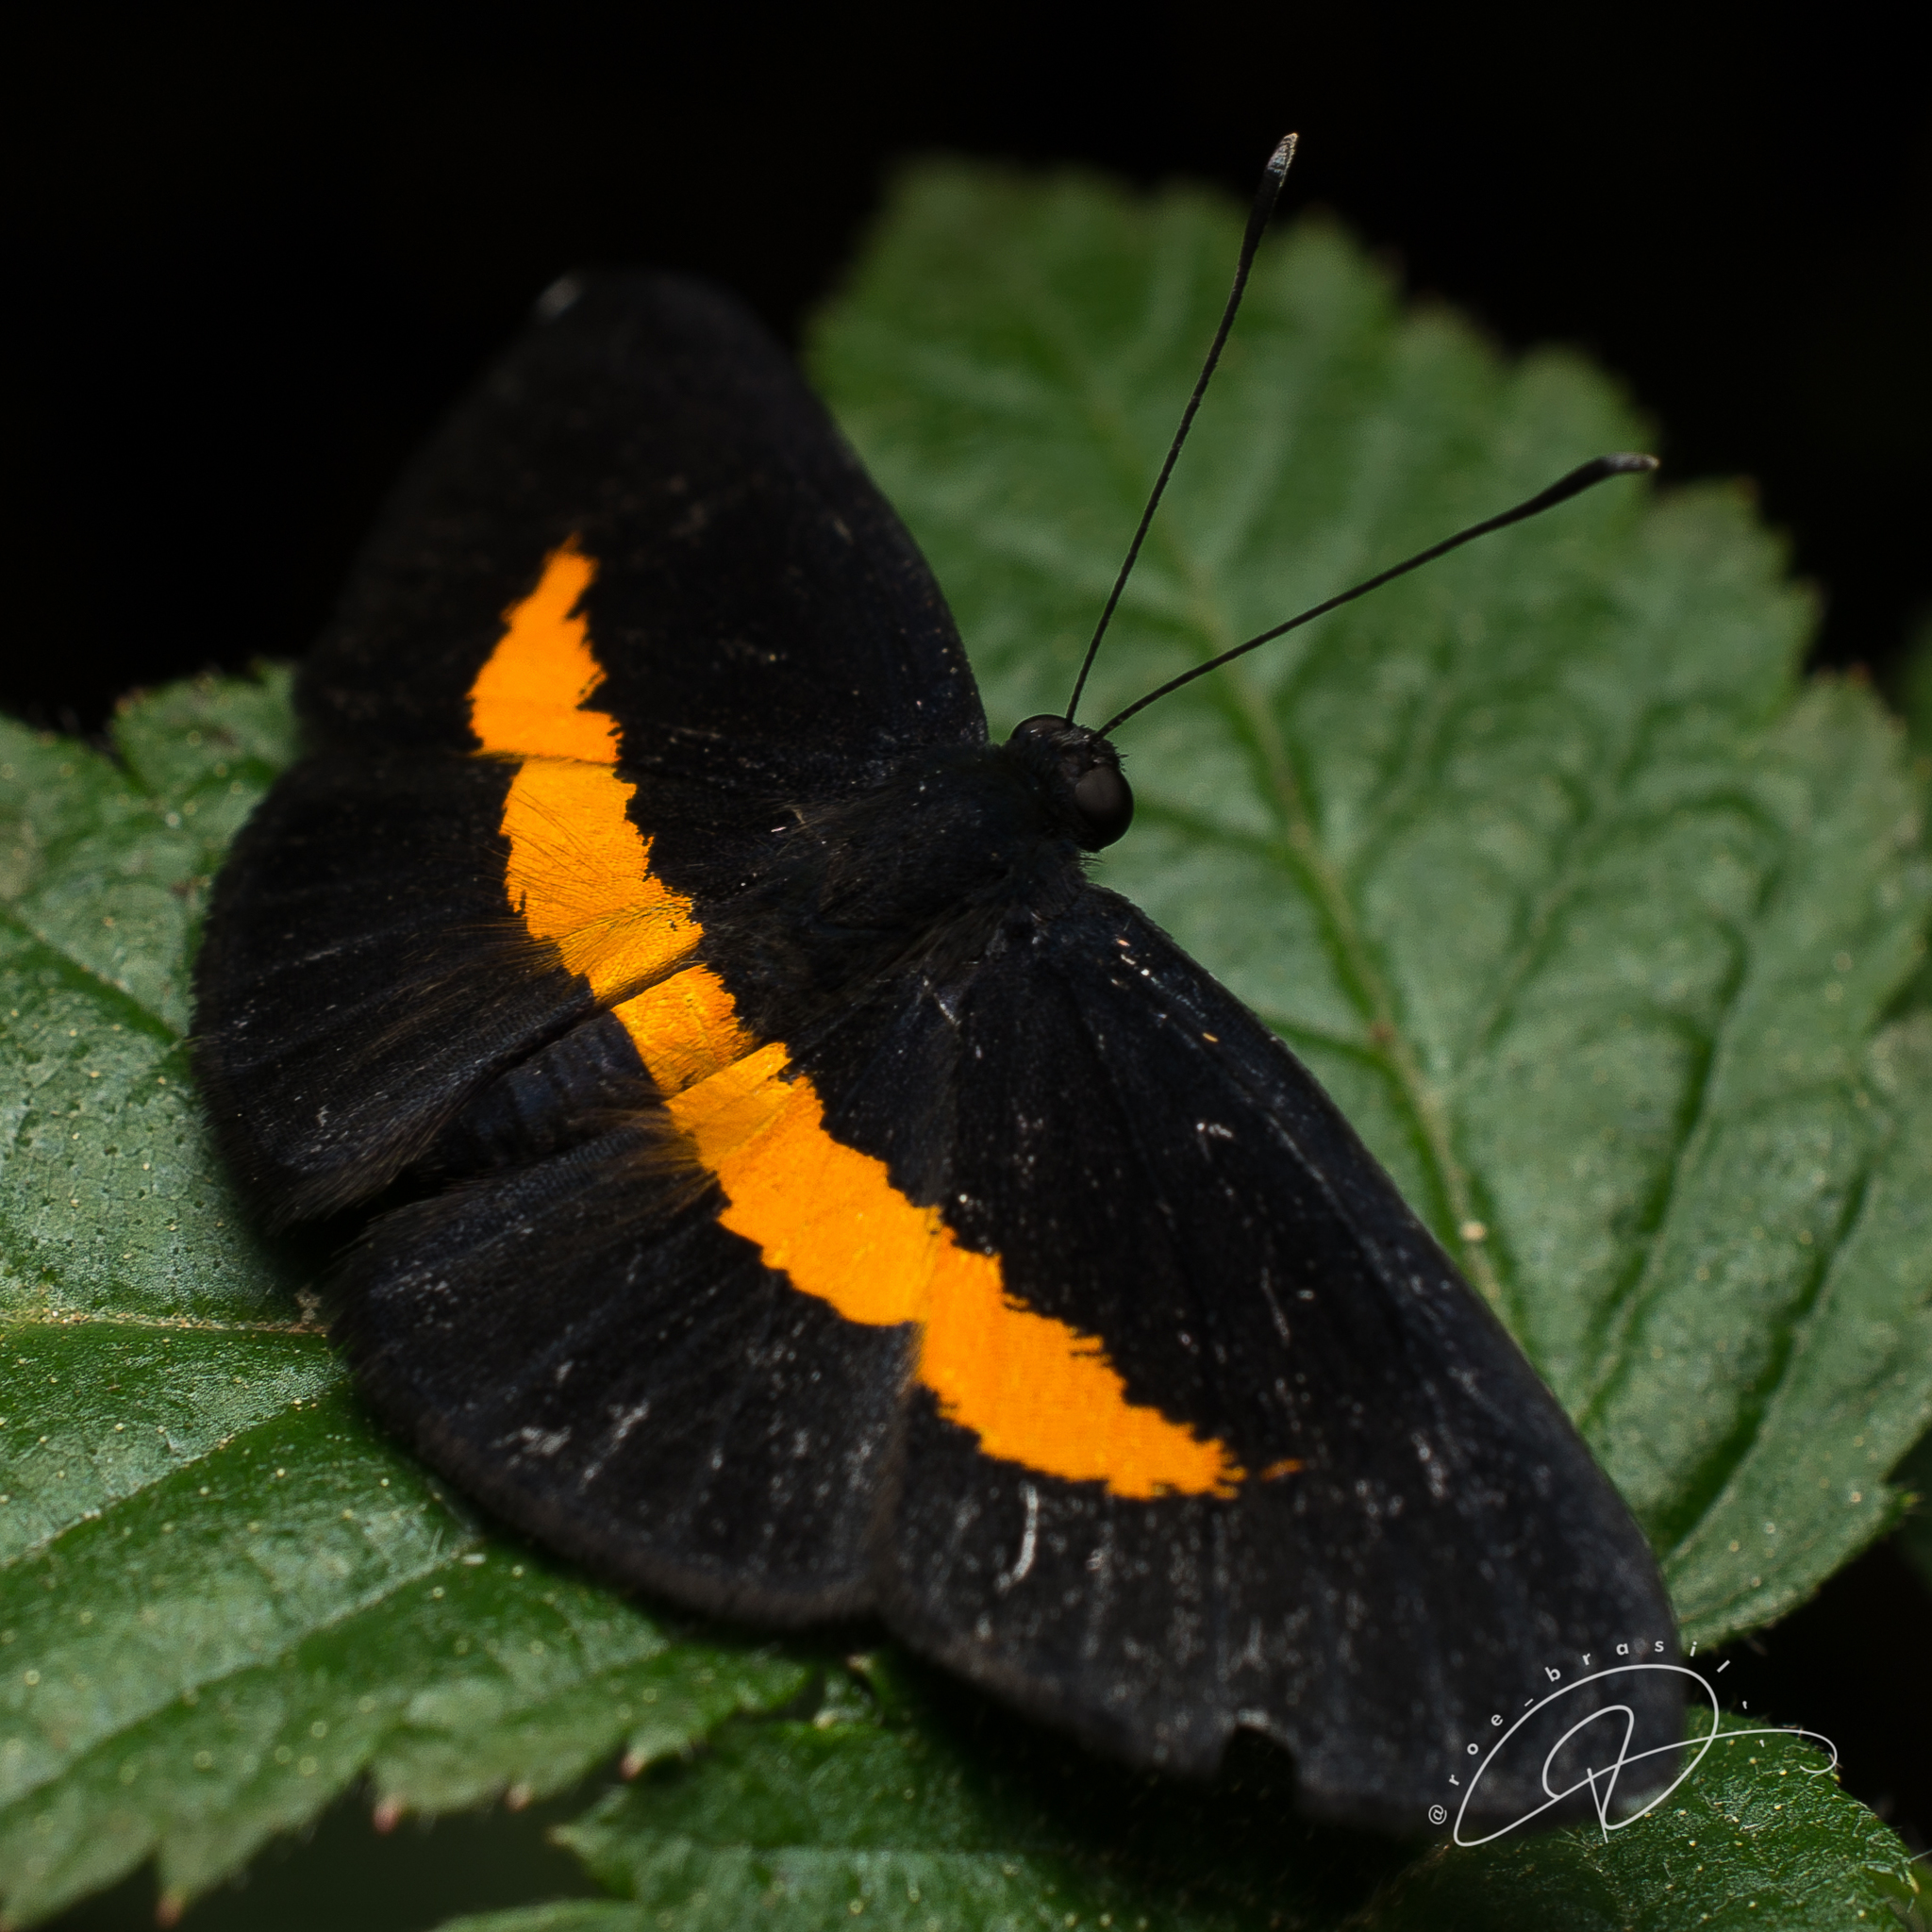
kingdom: Animalia
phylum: Arthropoda
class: Insecta
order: Lepidoptera
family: Riodinidae
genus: Pirascca
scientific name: Pirascca sagaris
